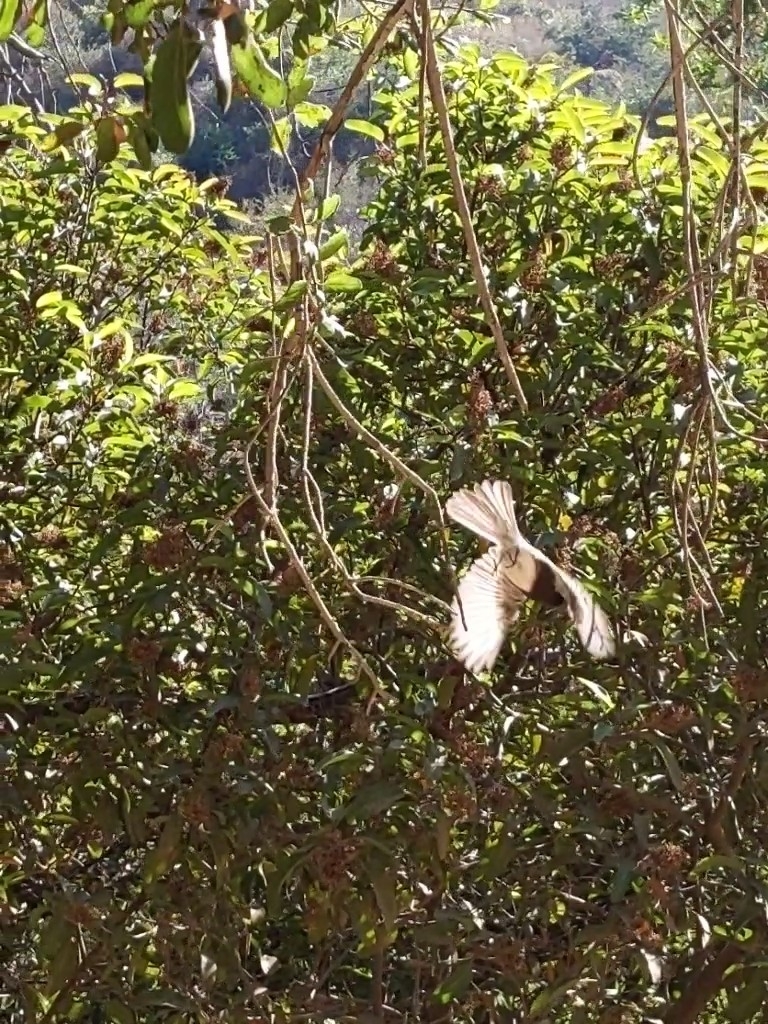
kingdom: Animalia
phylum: Chordata
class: Aves
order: Passeriformes
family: Tyrannidae
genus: Sayornis
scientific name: Sayornis nigricans
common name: Black phoebe
